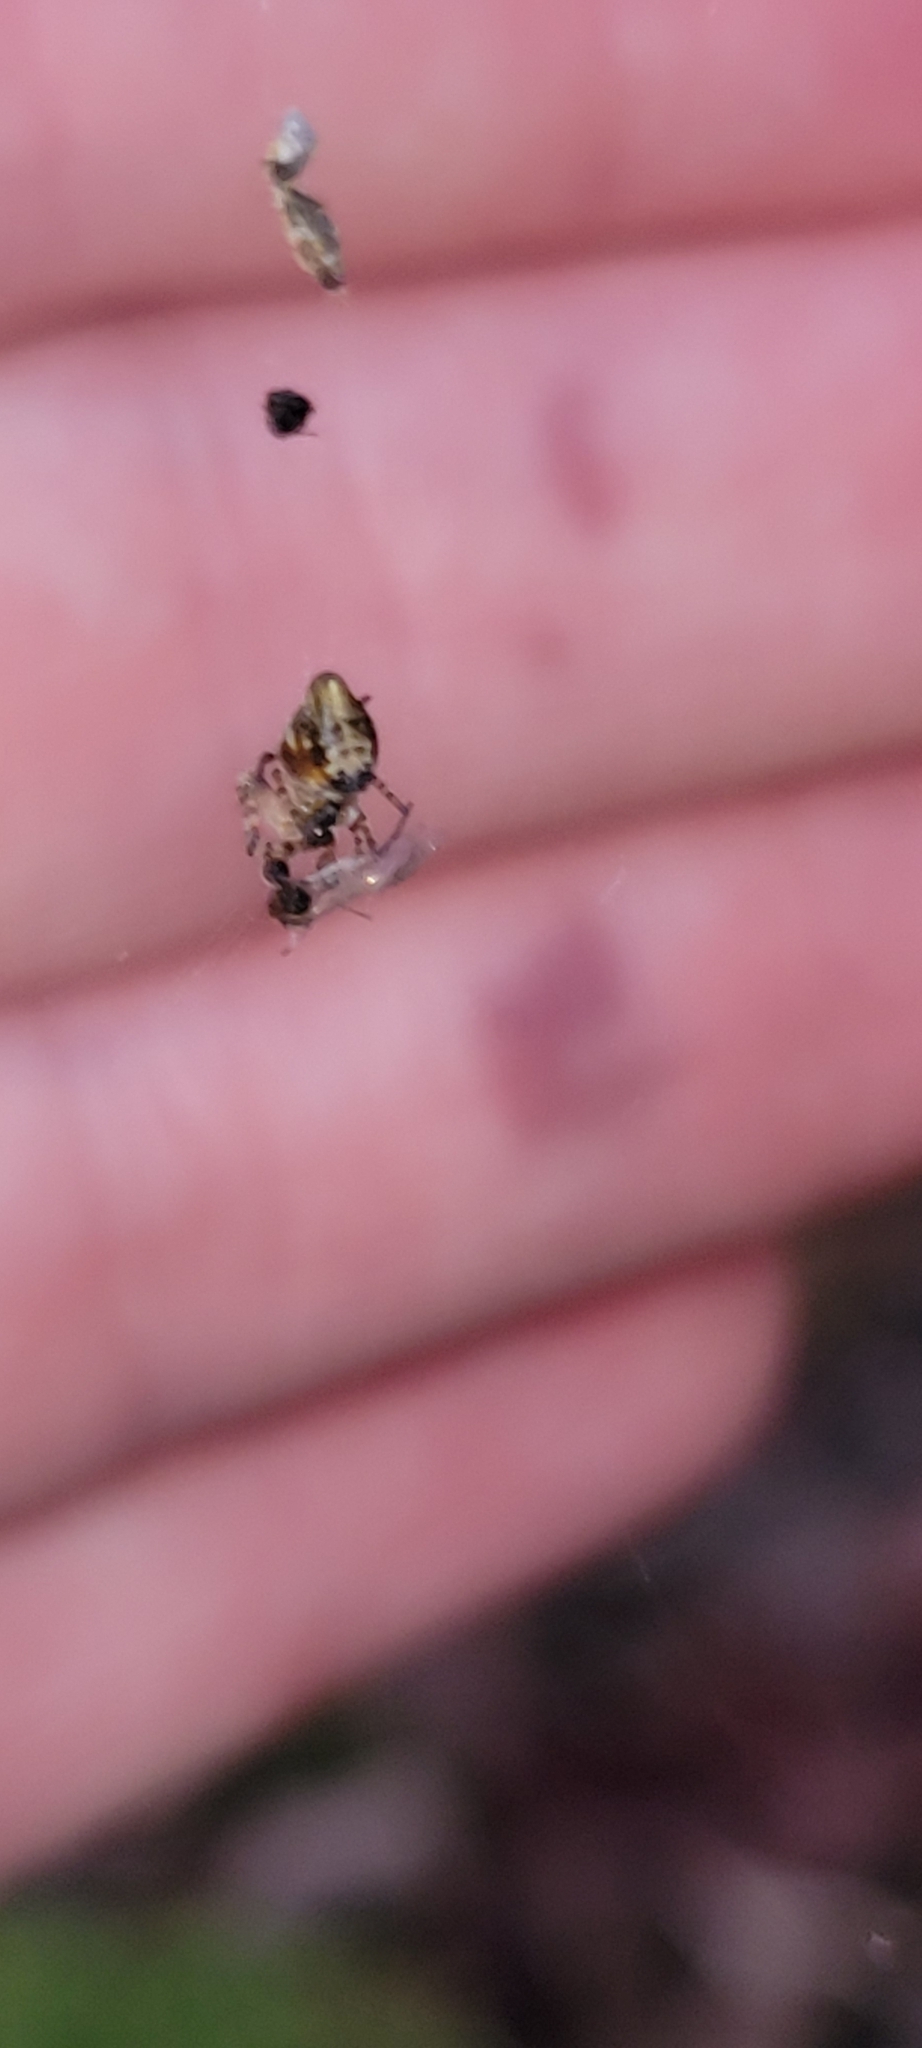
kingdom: Animalia
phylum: Arthropoda
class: Arachnida
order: Araneae
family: Araneidae
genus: Cyclosa
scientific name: Cyclosa conica
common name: Conical trashline orbweaver
